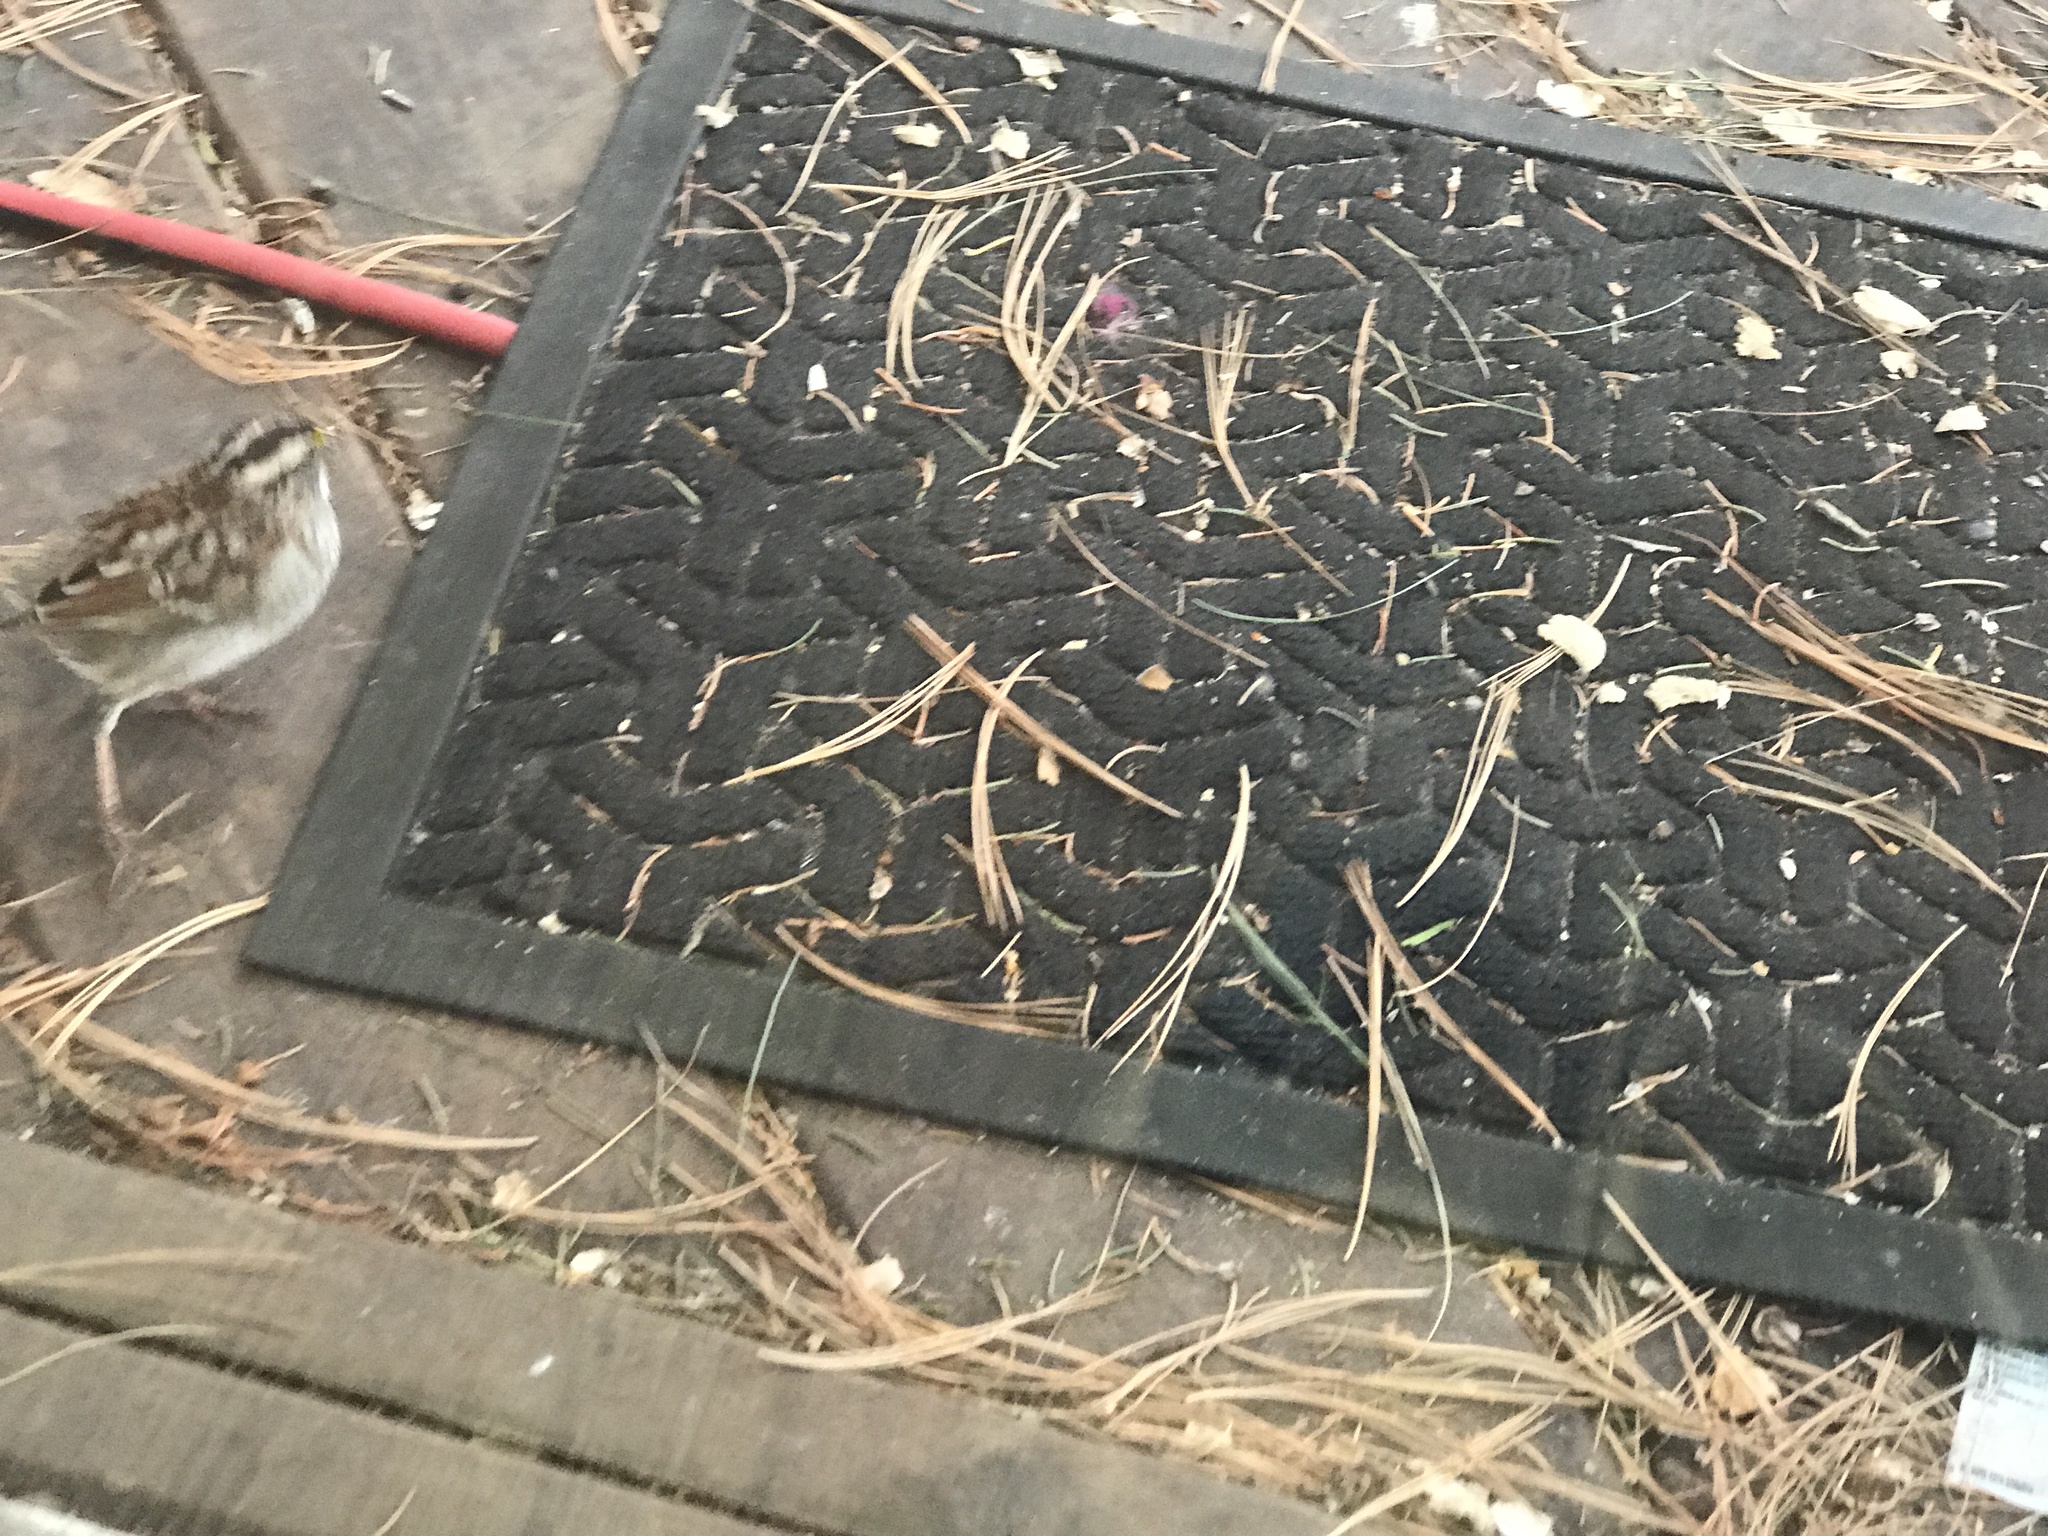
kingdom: Animalia
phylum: Chordata
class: Aves
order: Passeriformes
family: Passerellidae
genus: Zonotrichia
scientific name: Zonotrichia albicollis
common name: White-throated sparrow
